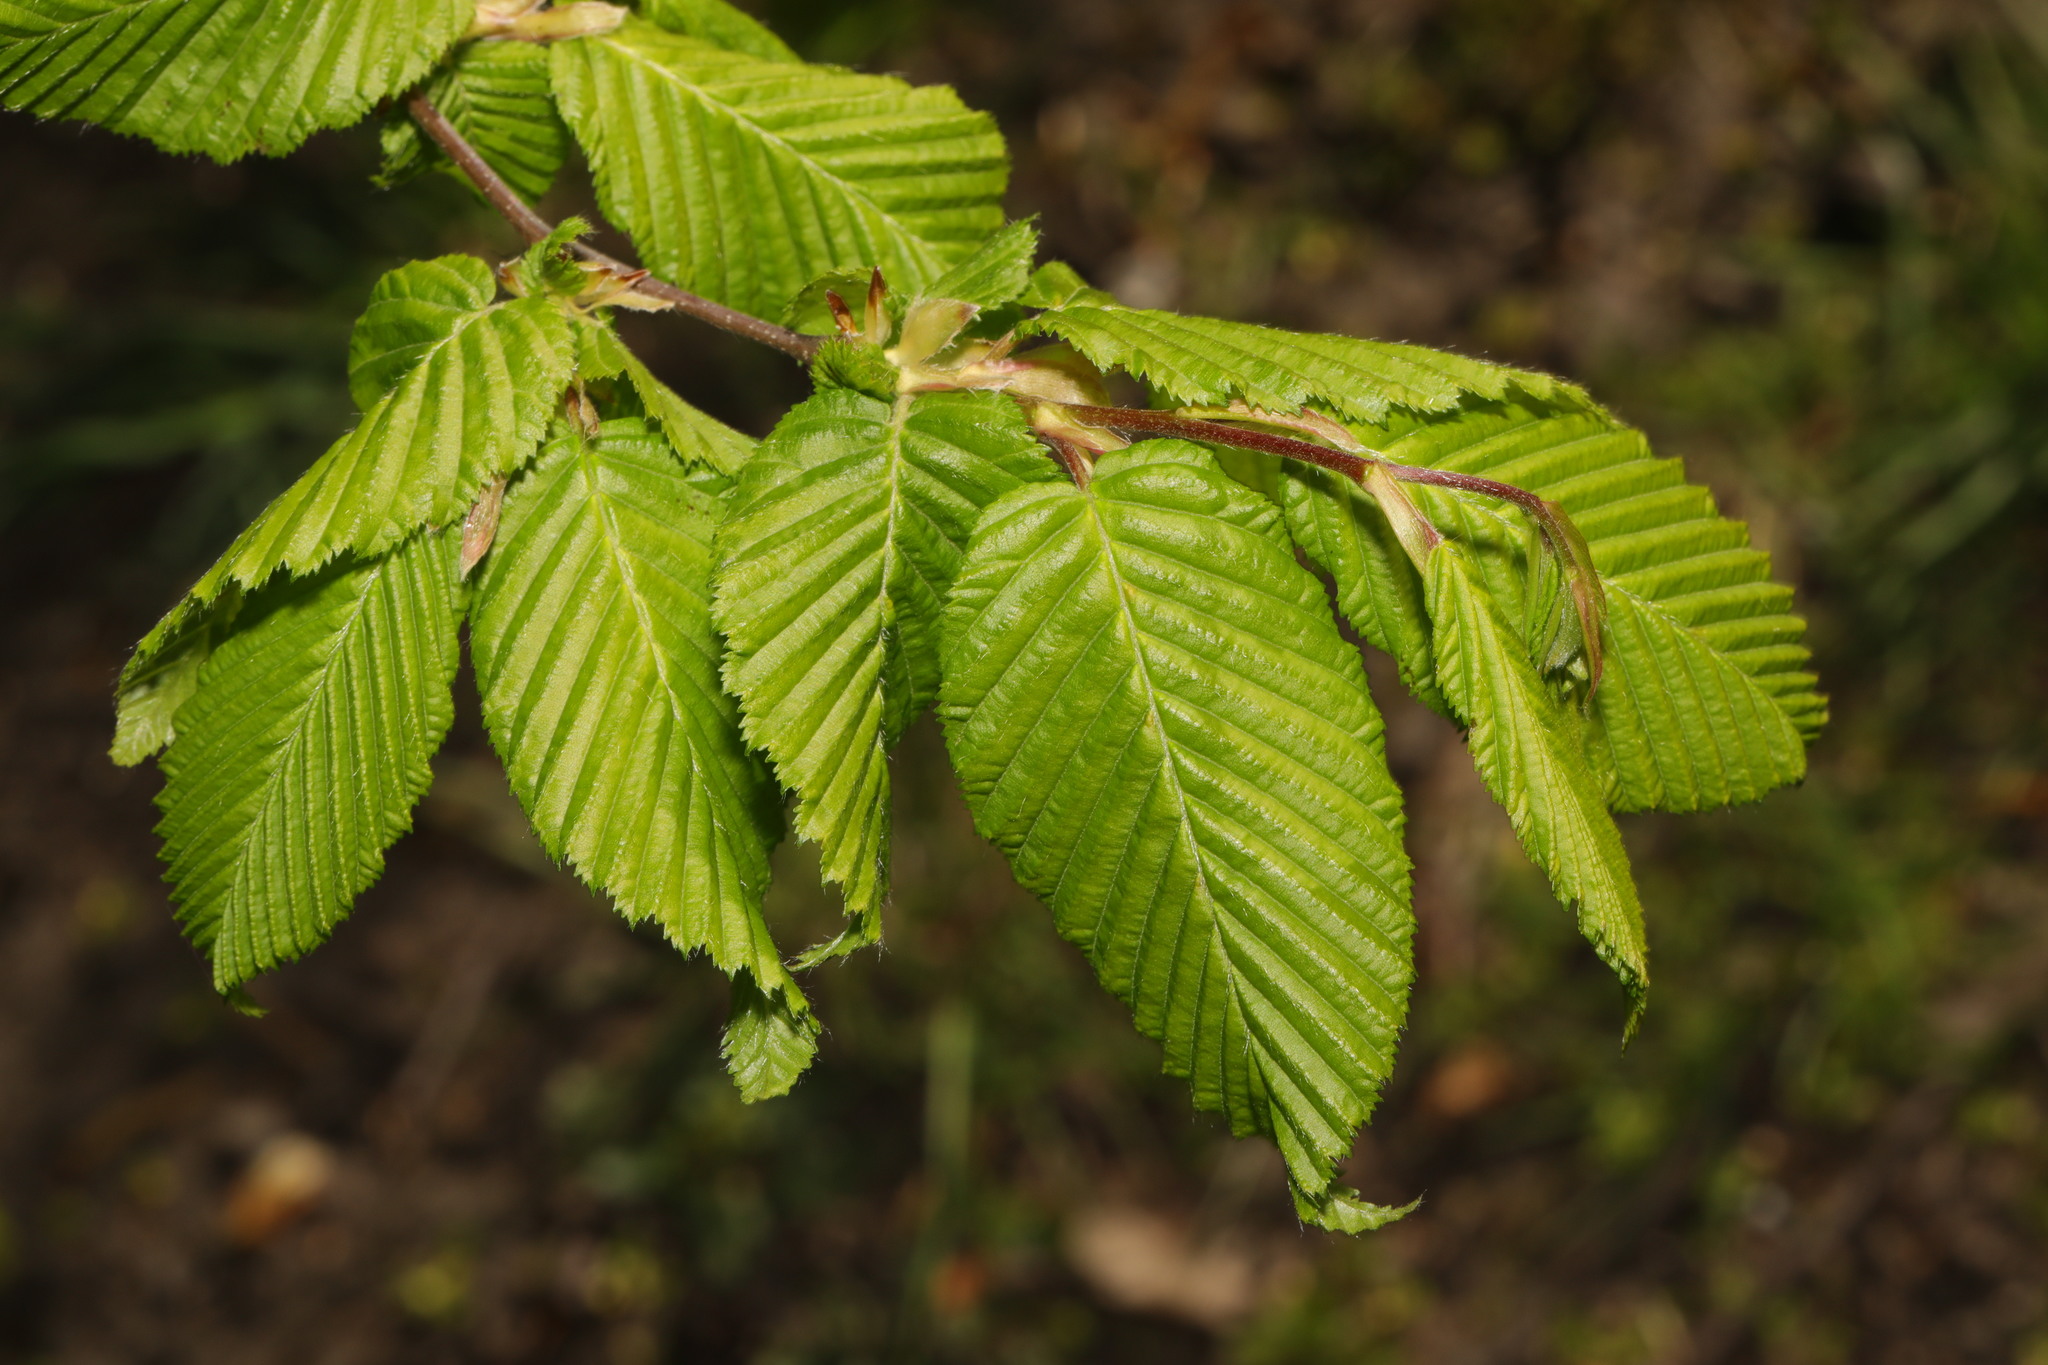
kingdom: Plantae
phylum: Tracheophyta
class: Magnoliopsida
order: Fagales
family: Betulaceae
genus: Carpinus
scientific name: Carpinus betulus
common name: Hornbeam
